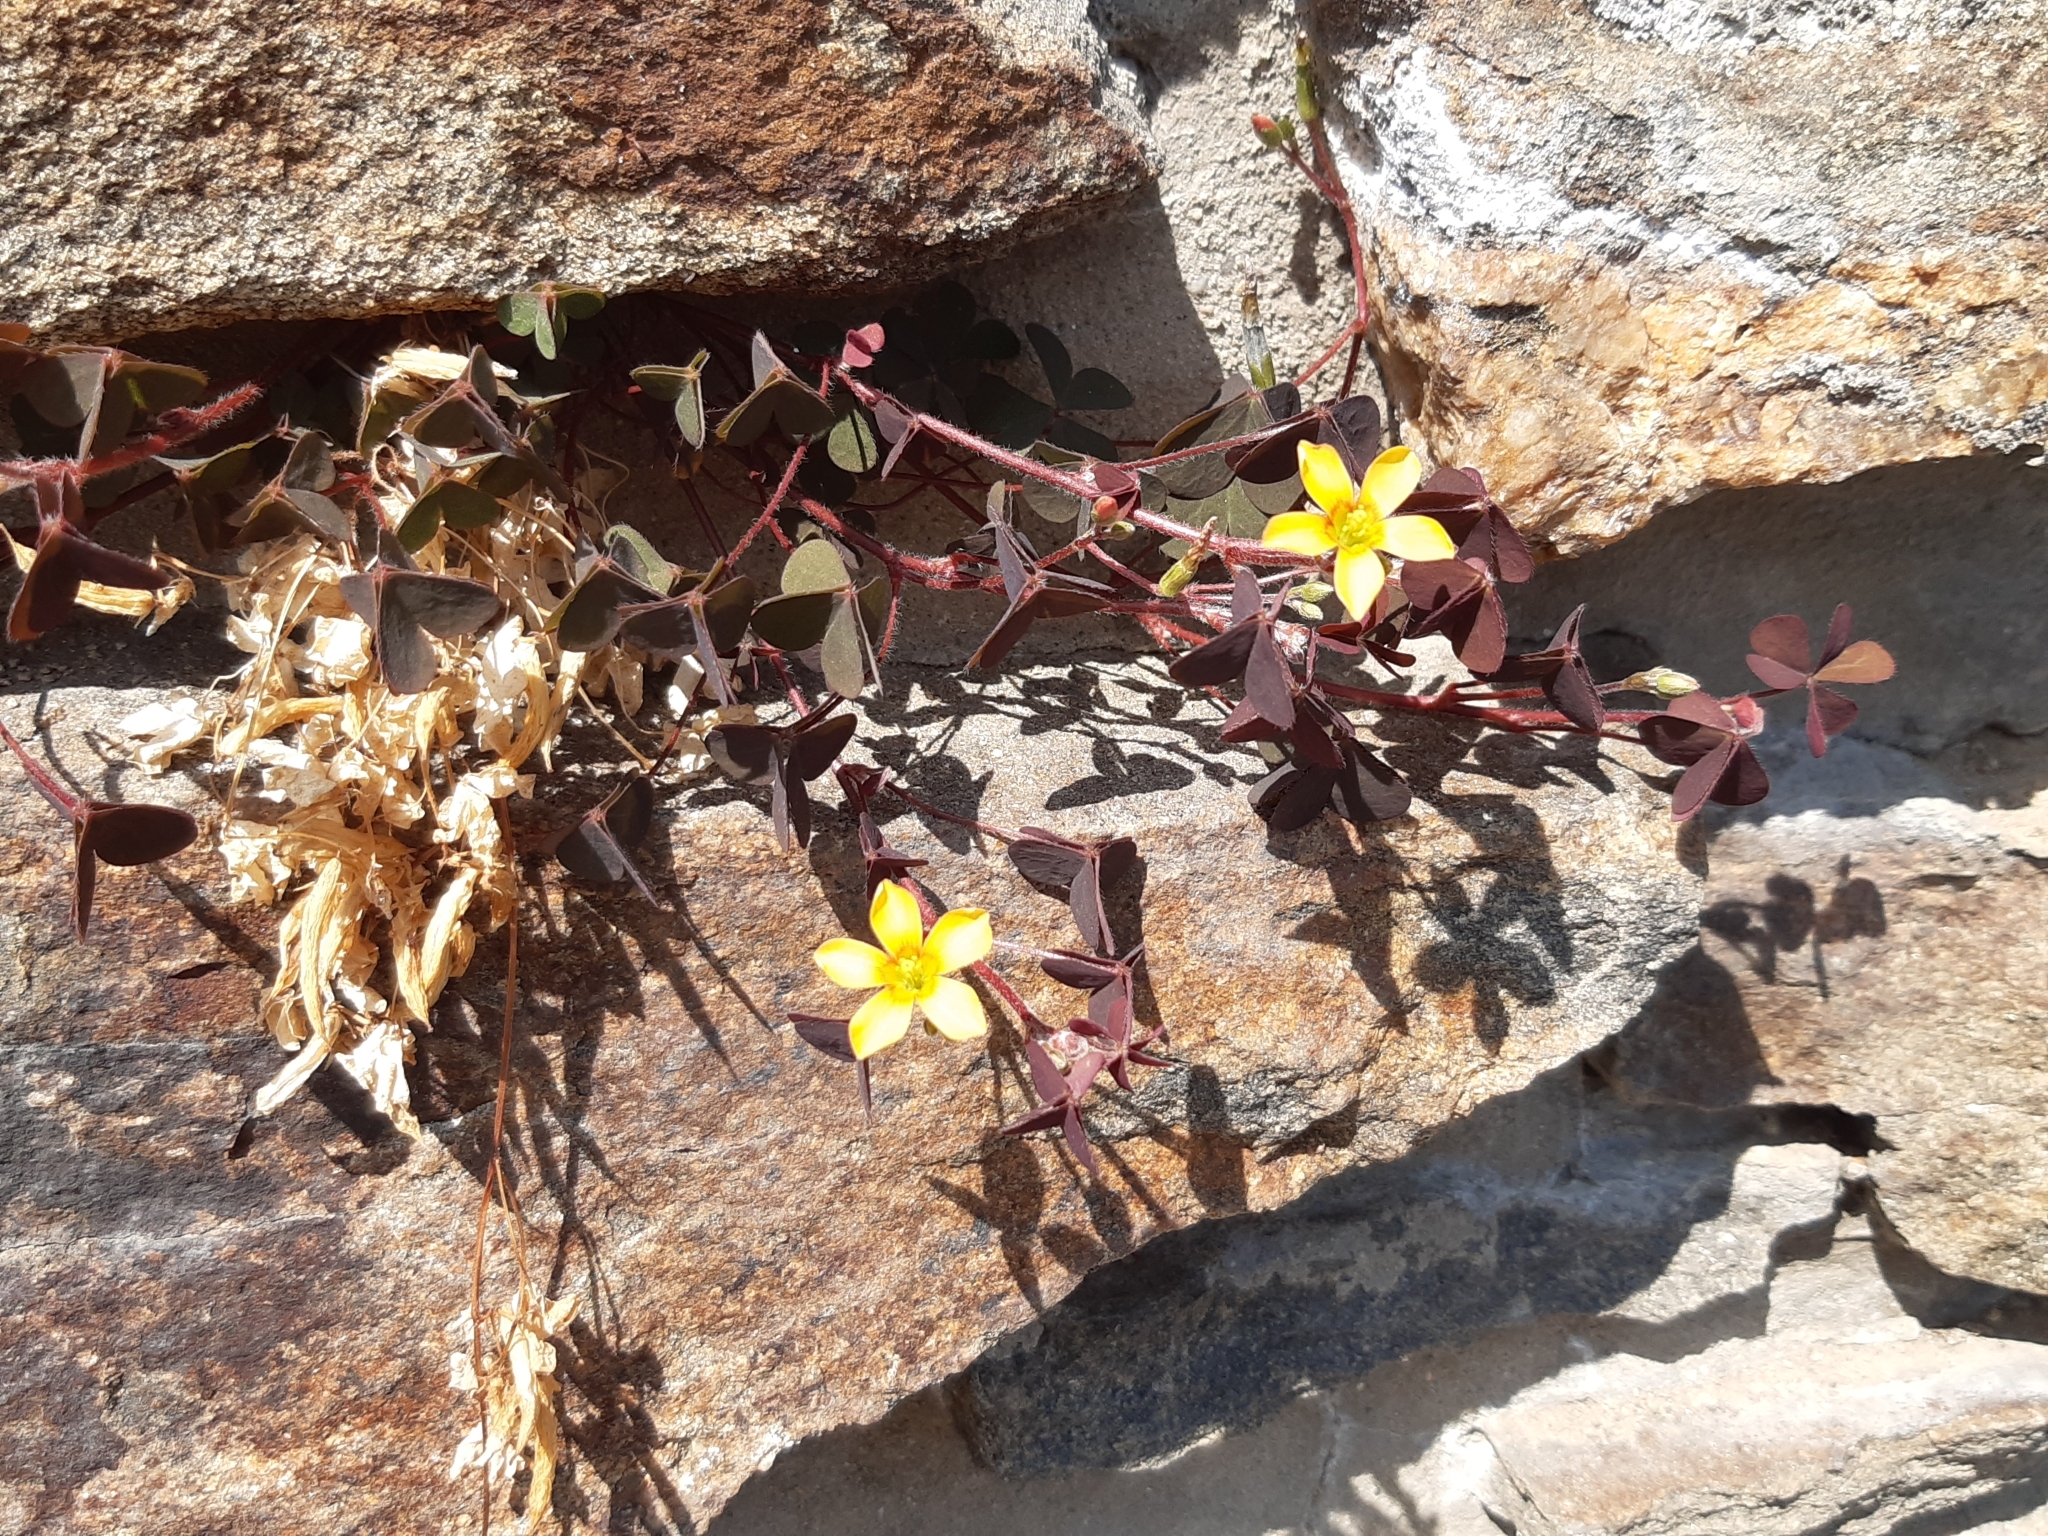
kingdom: Plantae
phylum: Tracheophyta
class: Magnoliopsida
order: Oxalidales
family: Oxalidaceae
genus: Oxalis
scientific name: Oxalis corniculata
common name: Procumbent yellow-sorrel
